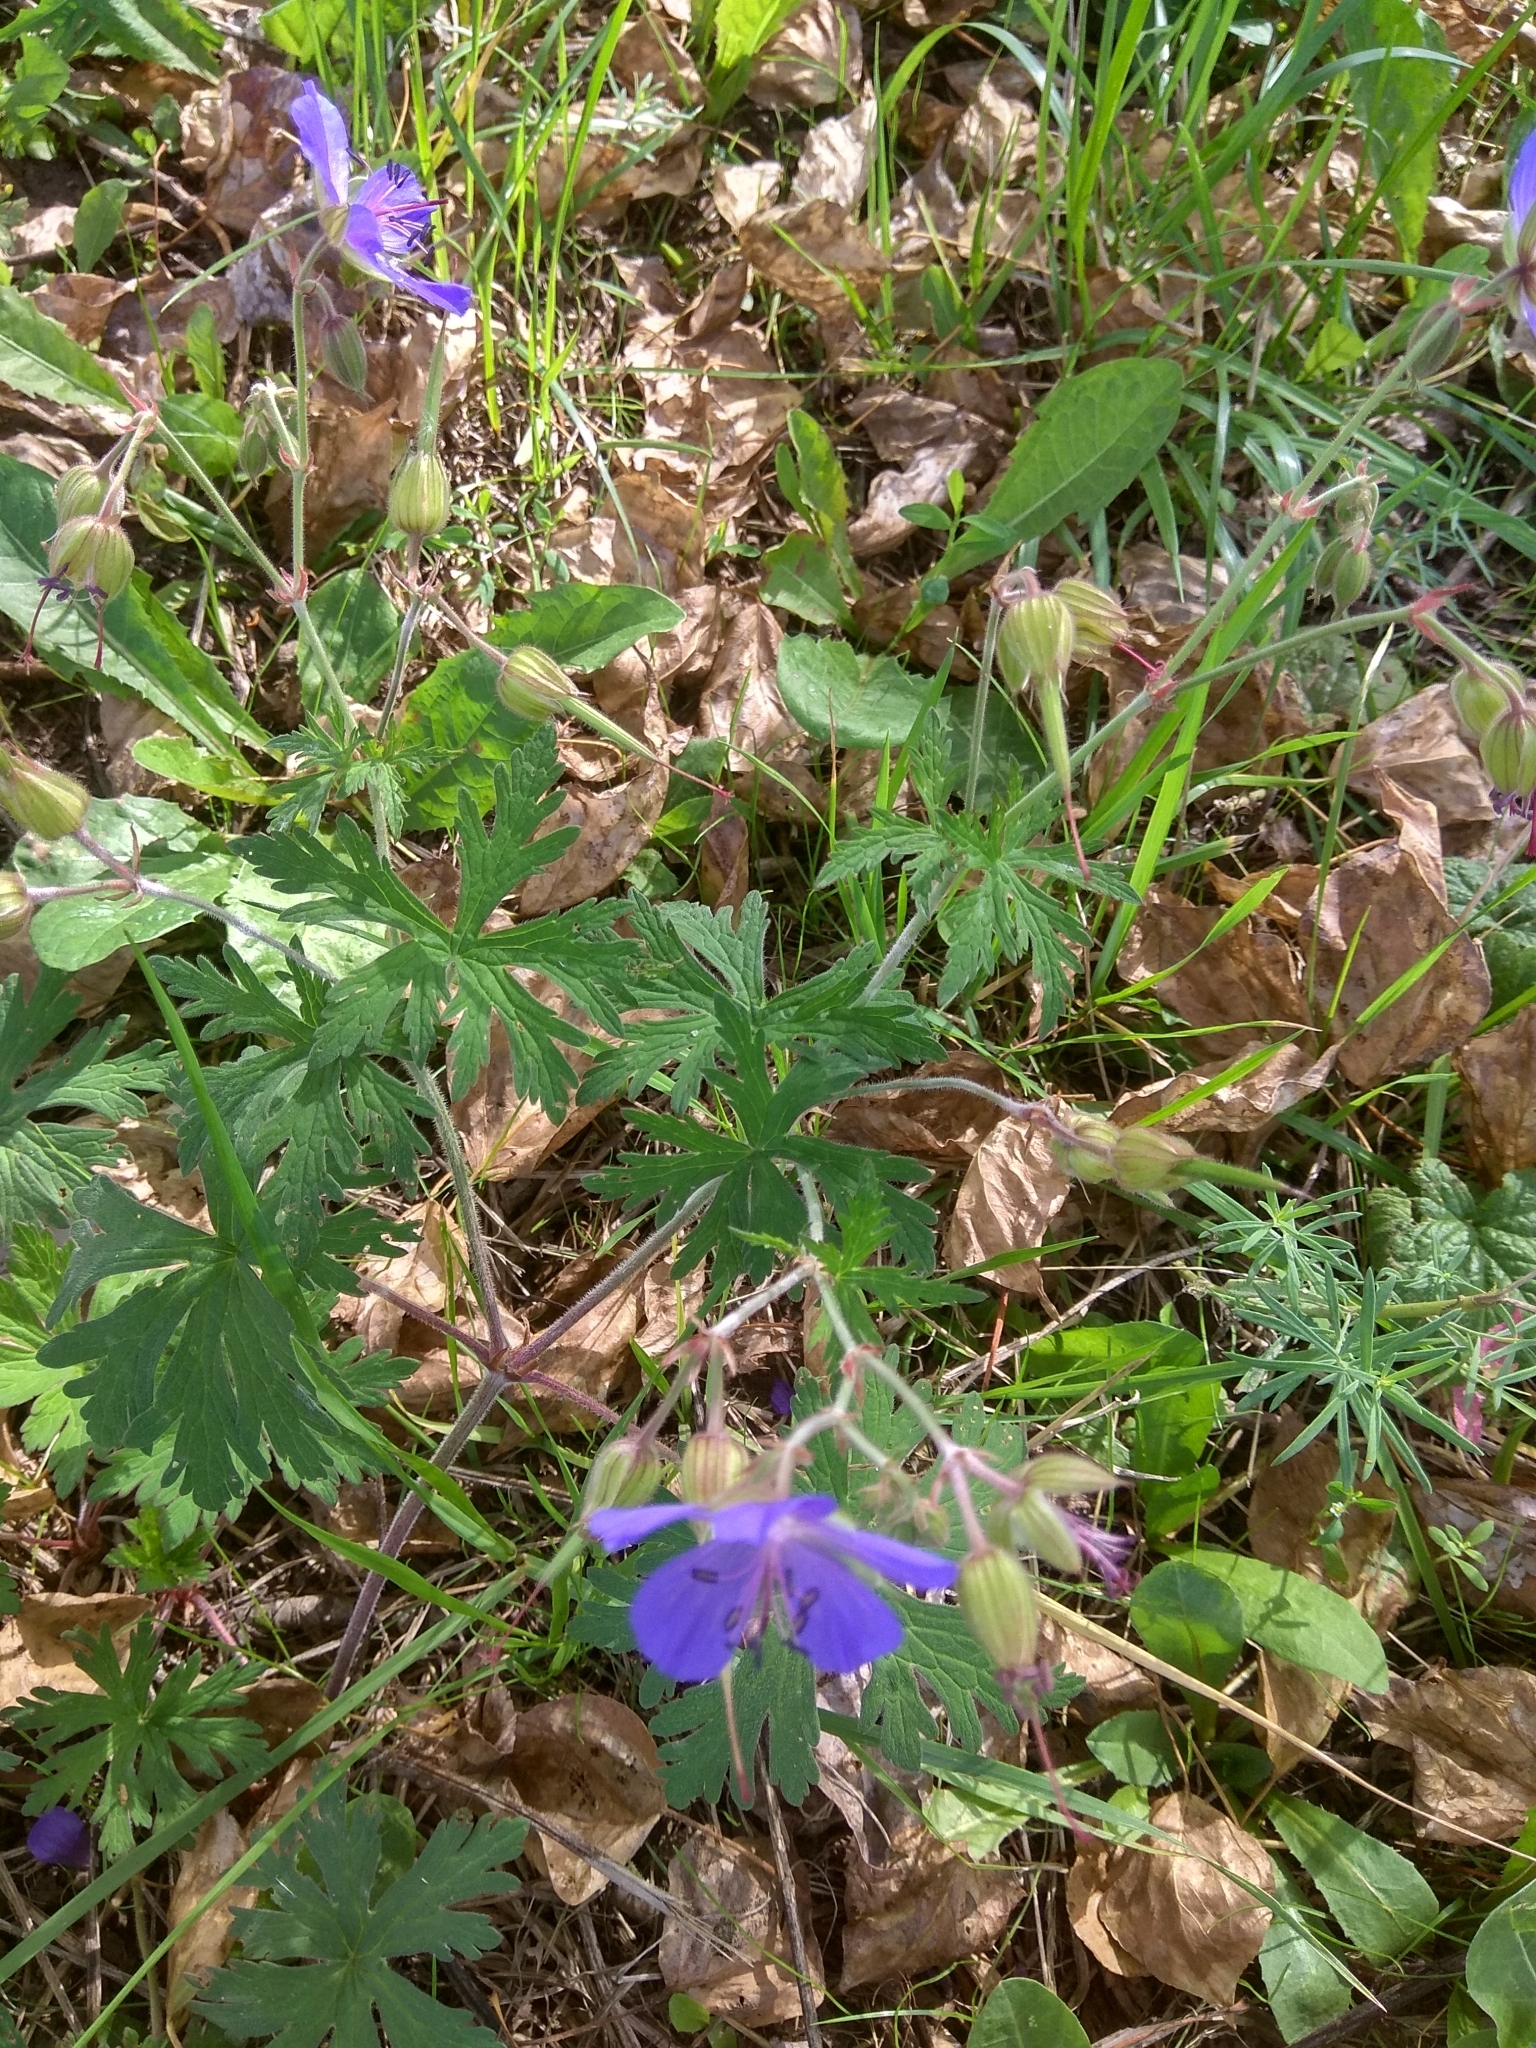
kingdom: Plantae
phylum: Tracheophyta
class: Magnoliopsida
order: Geraniales
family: Geraniaceae
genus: Geranium
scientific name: Geranium pratense
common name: Meadow crane's-bill
